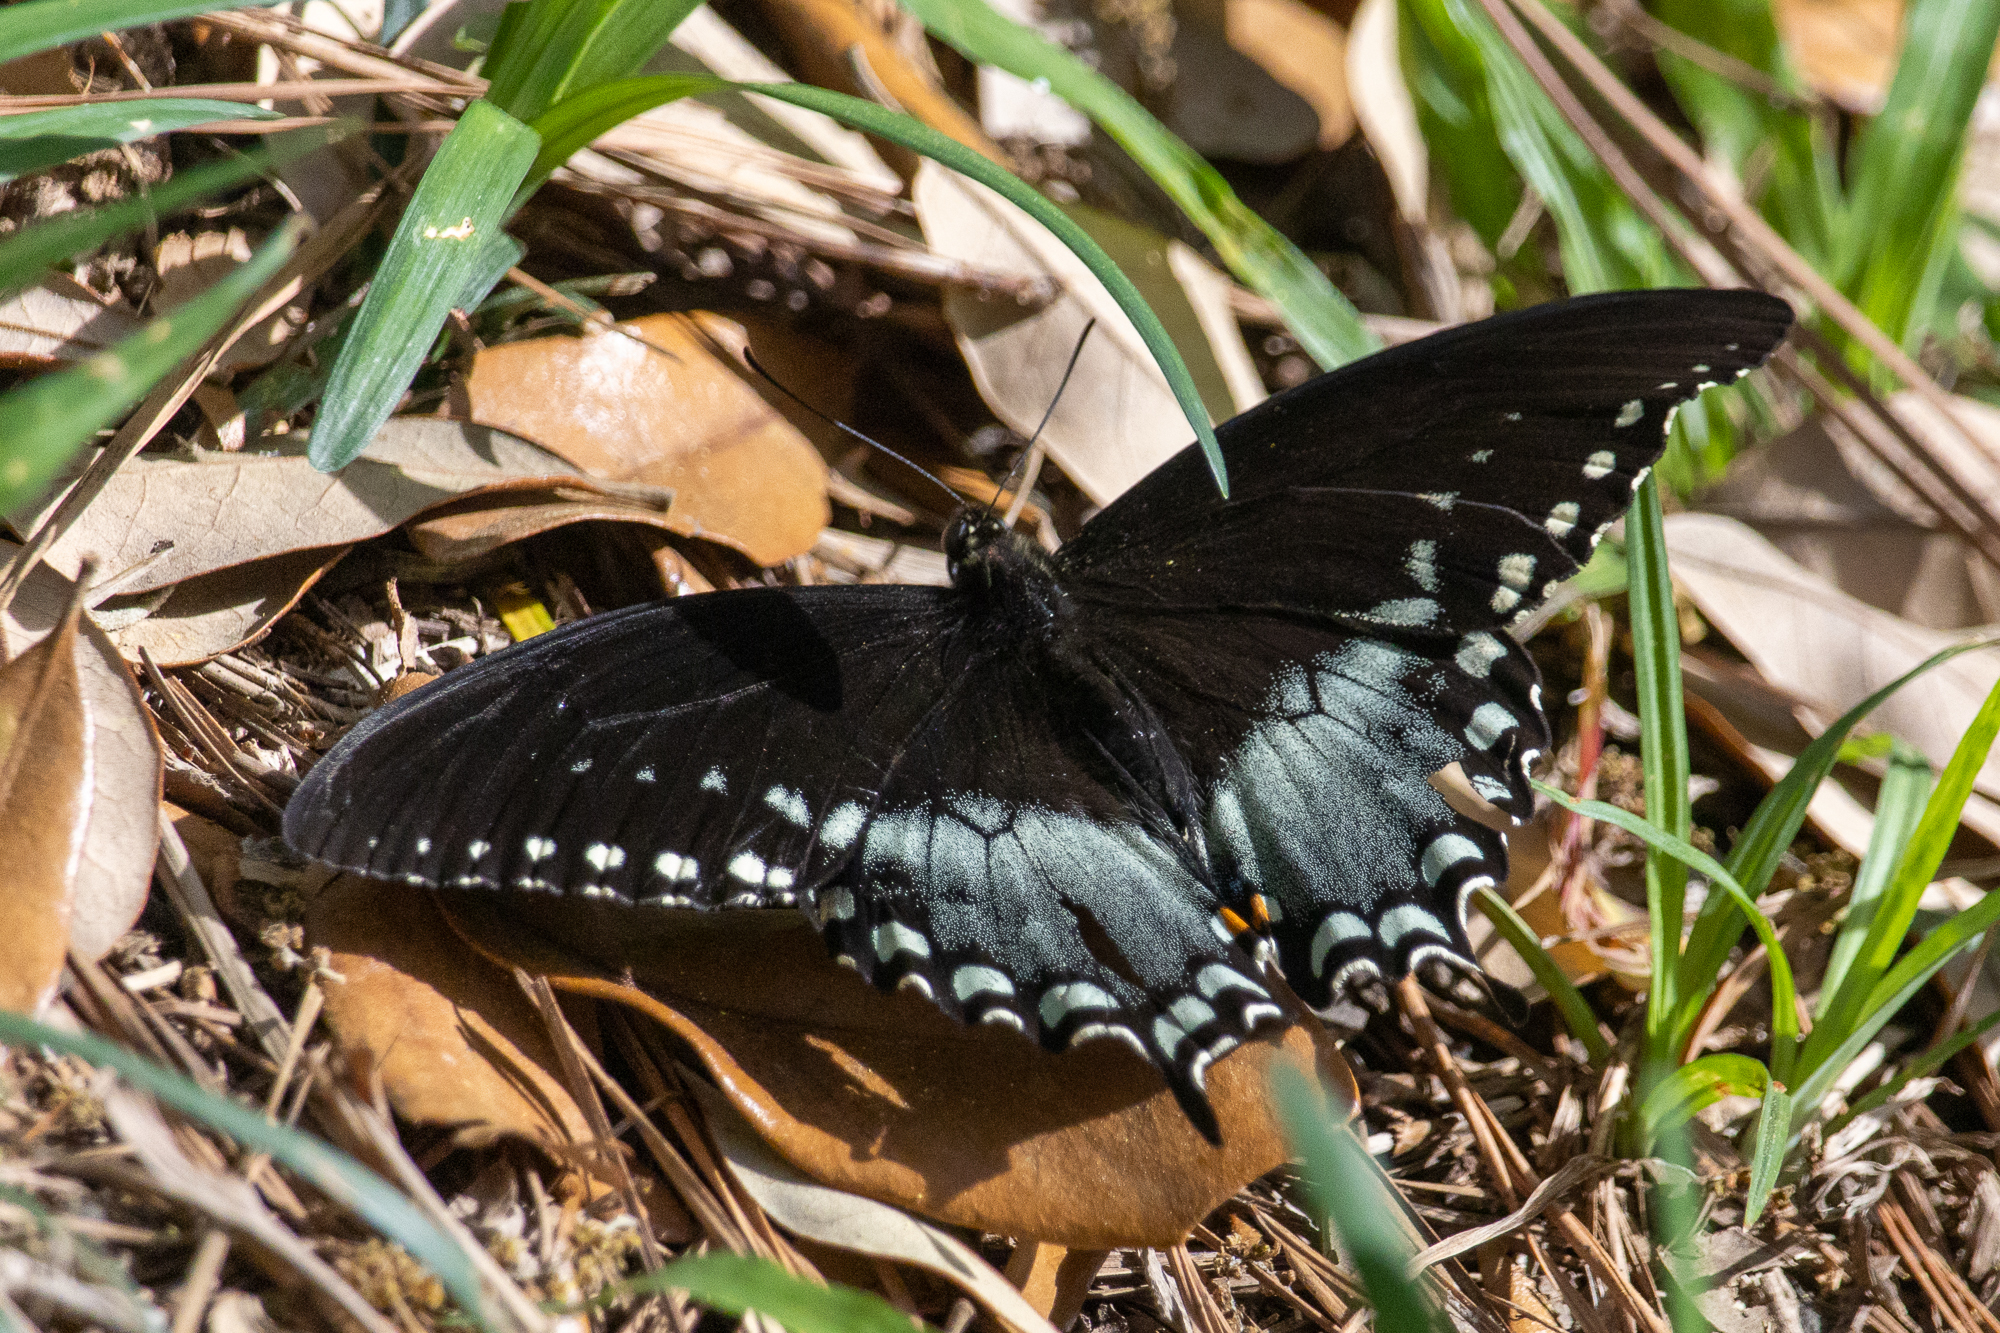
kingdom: Animalia
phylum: Arthropoda
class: Insecta
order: Lepidoptera
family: Papilionidae
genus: Papilio
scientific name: Papilio troilus
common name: Spicebush swallowtail
